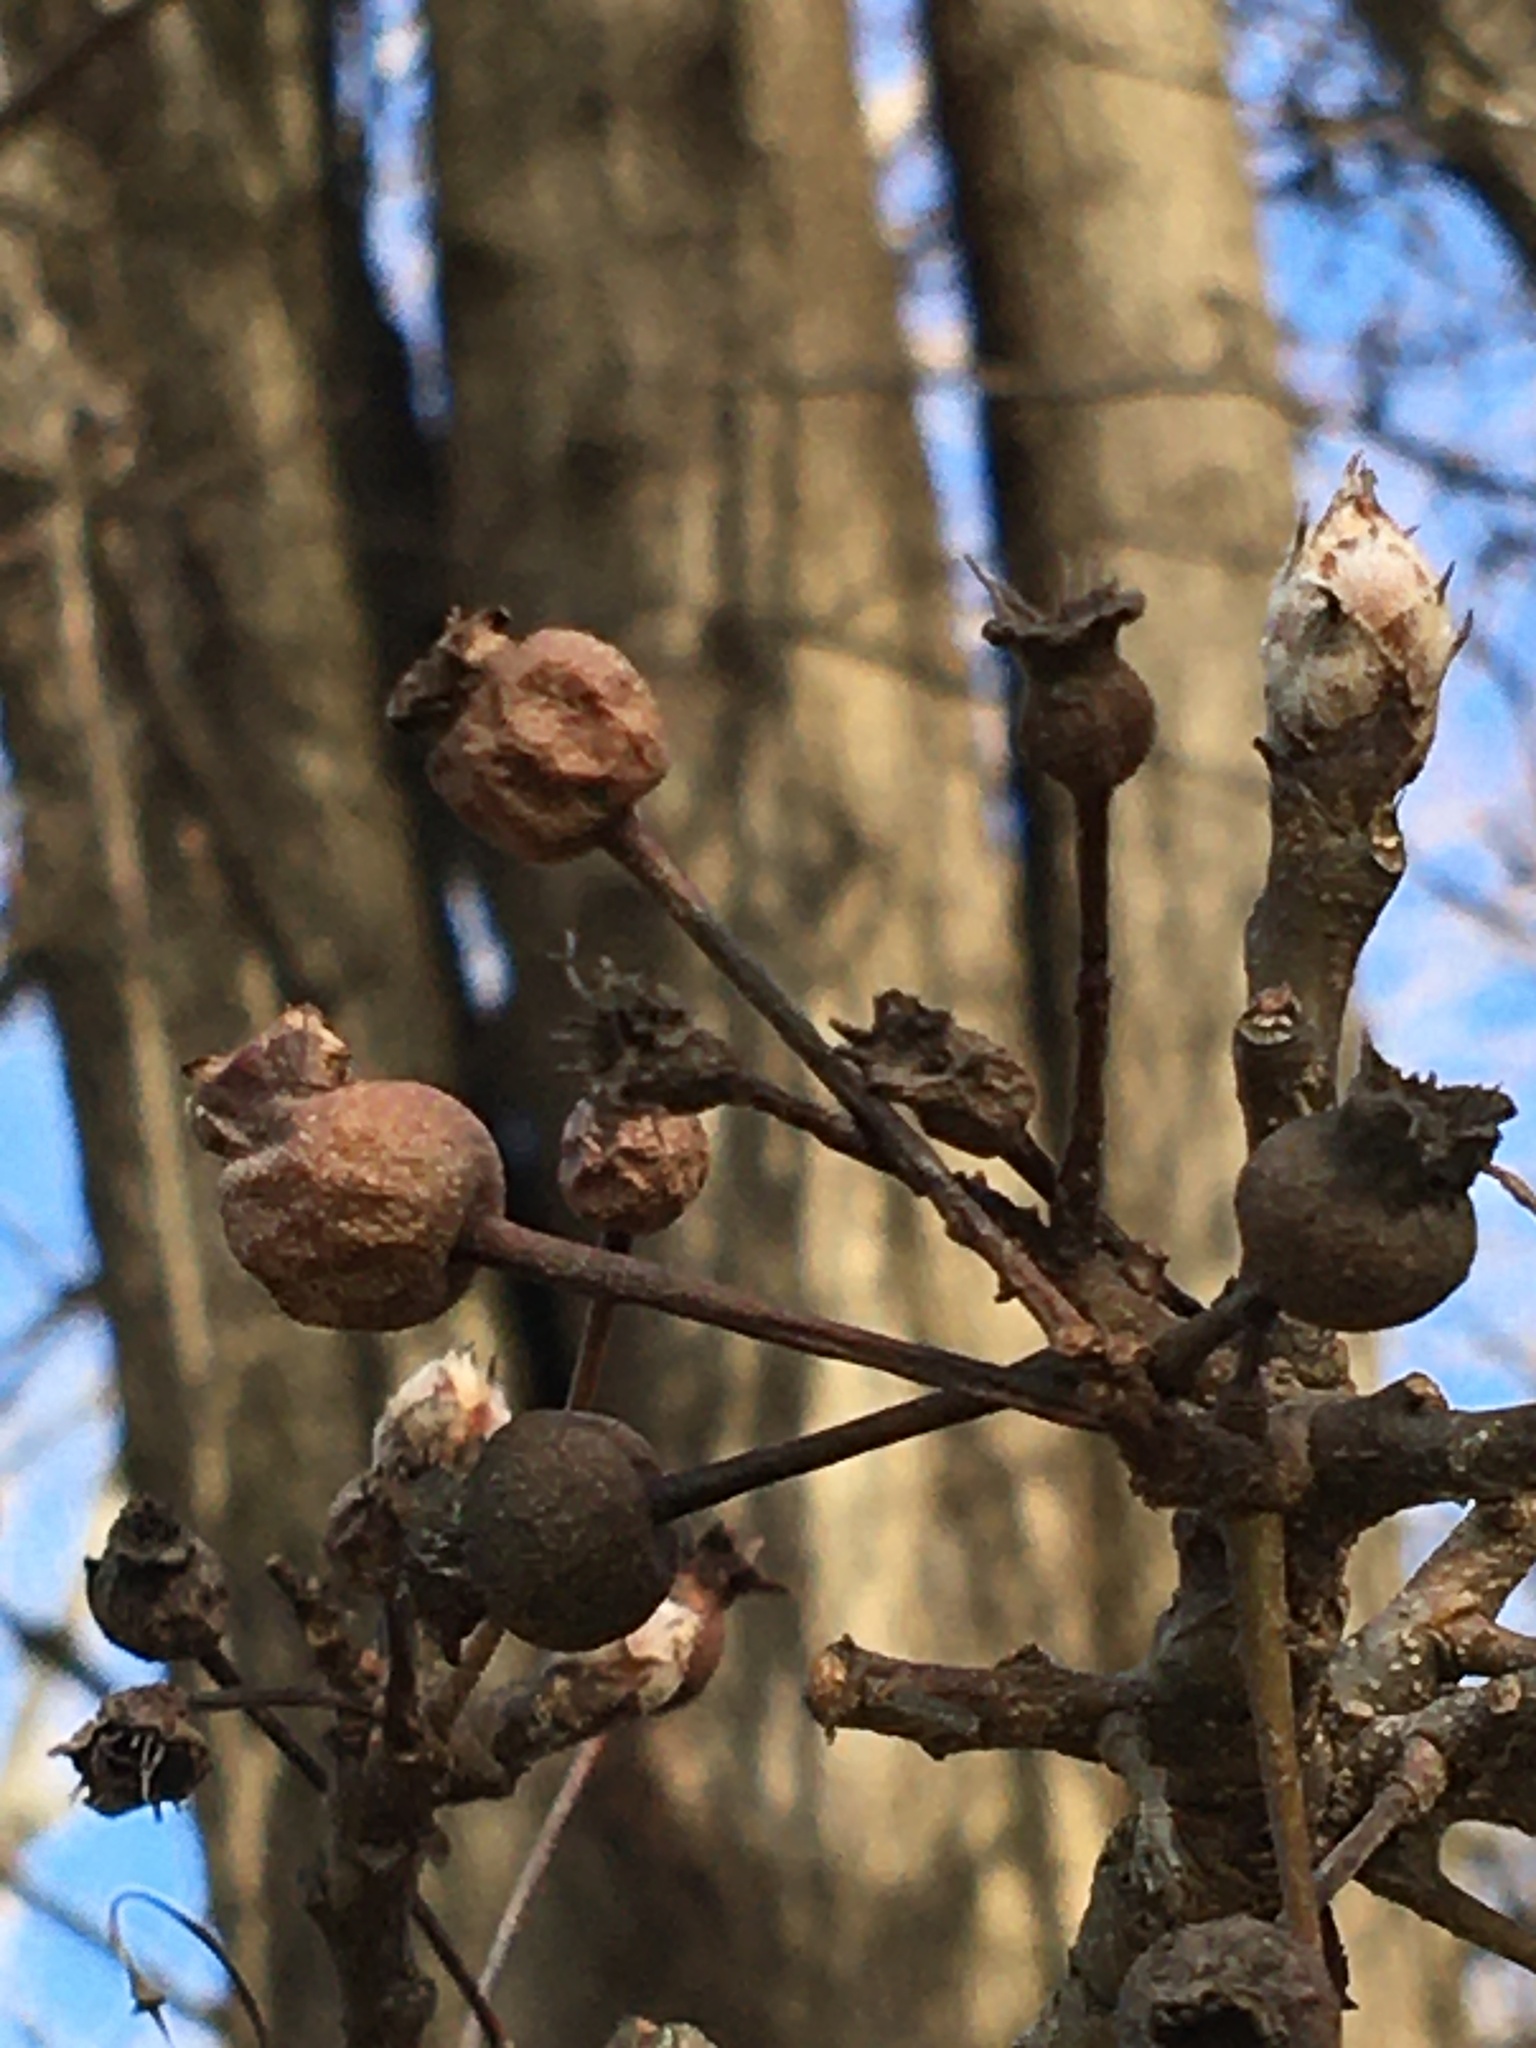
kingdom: Plantae
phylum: Tracheophyta
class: Magnoliopsida
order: Rosales
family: Rosaceae
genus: Pyrus
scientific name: Pyrus calleryana
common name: Callery pear
